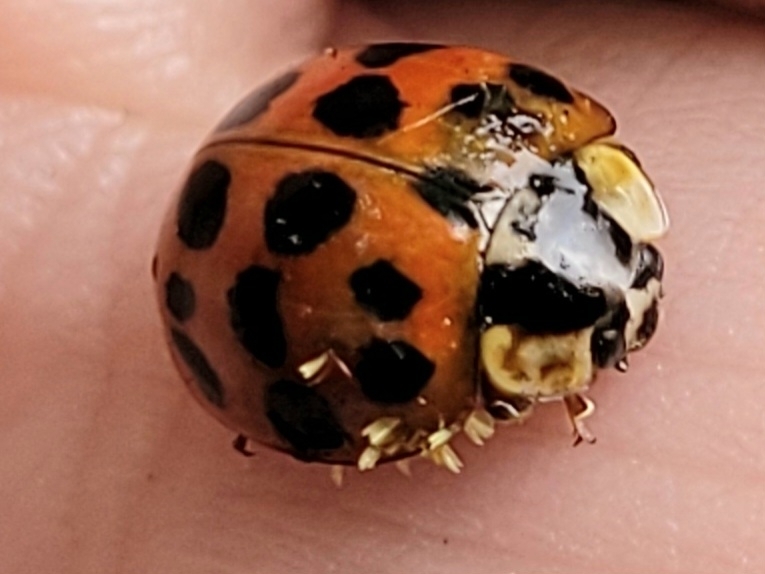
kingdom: Fungi
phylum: Ascomycota
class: Laboulbeniomycetes
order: Laboulbeniales
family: Laboulbeniaceae
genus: Hesperomyces
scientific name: Hesperomyces harmoniae
